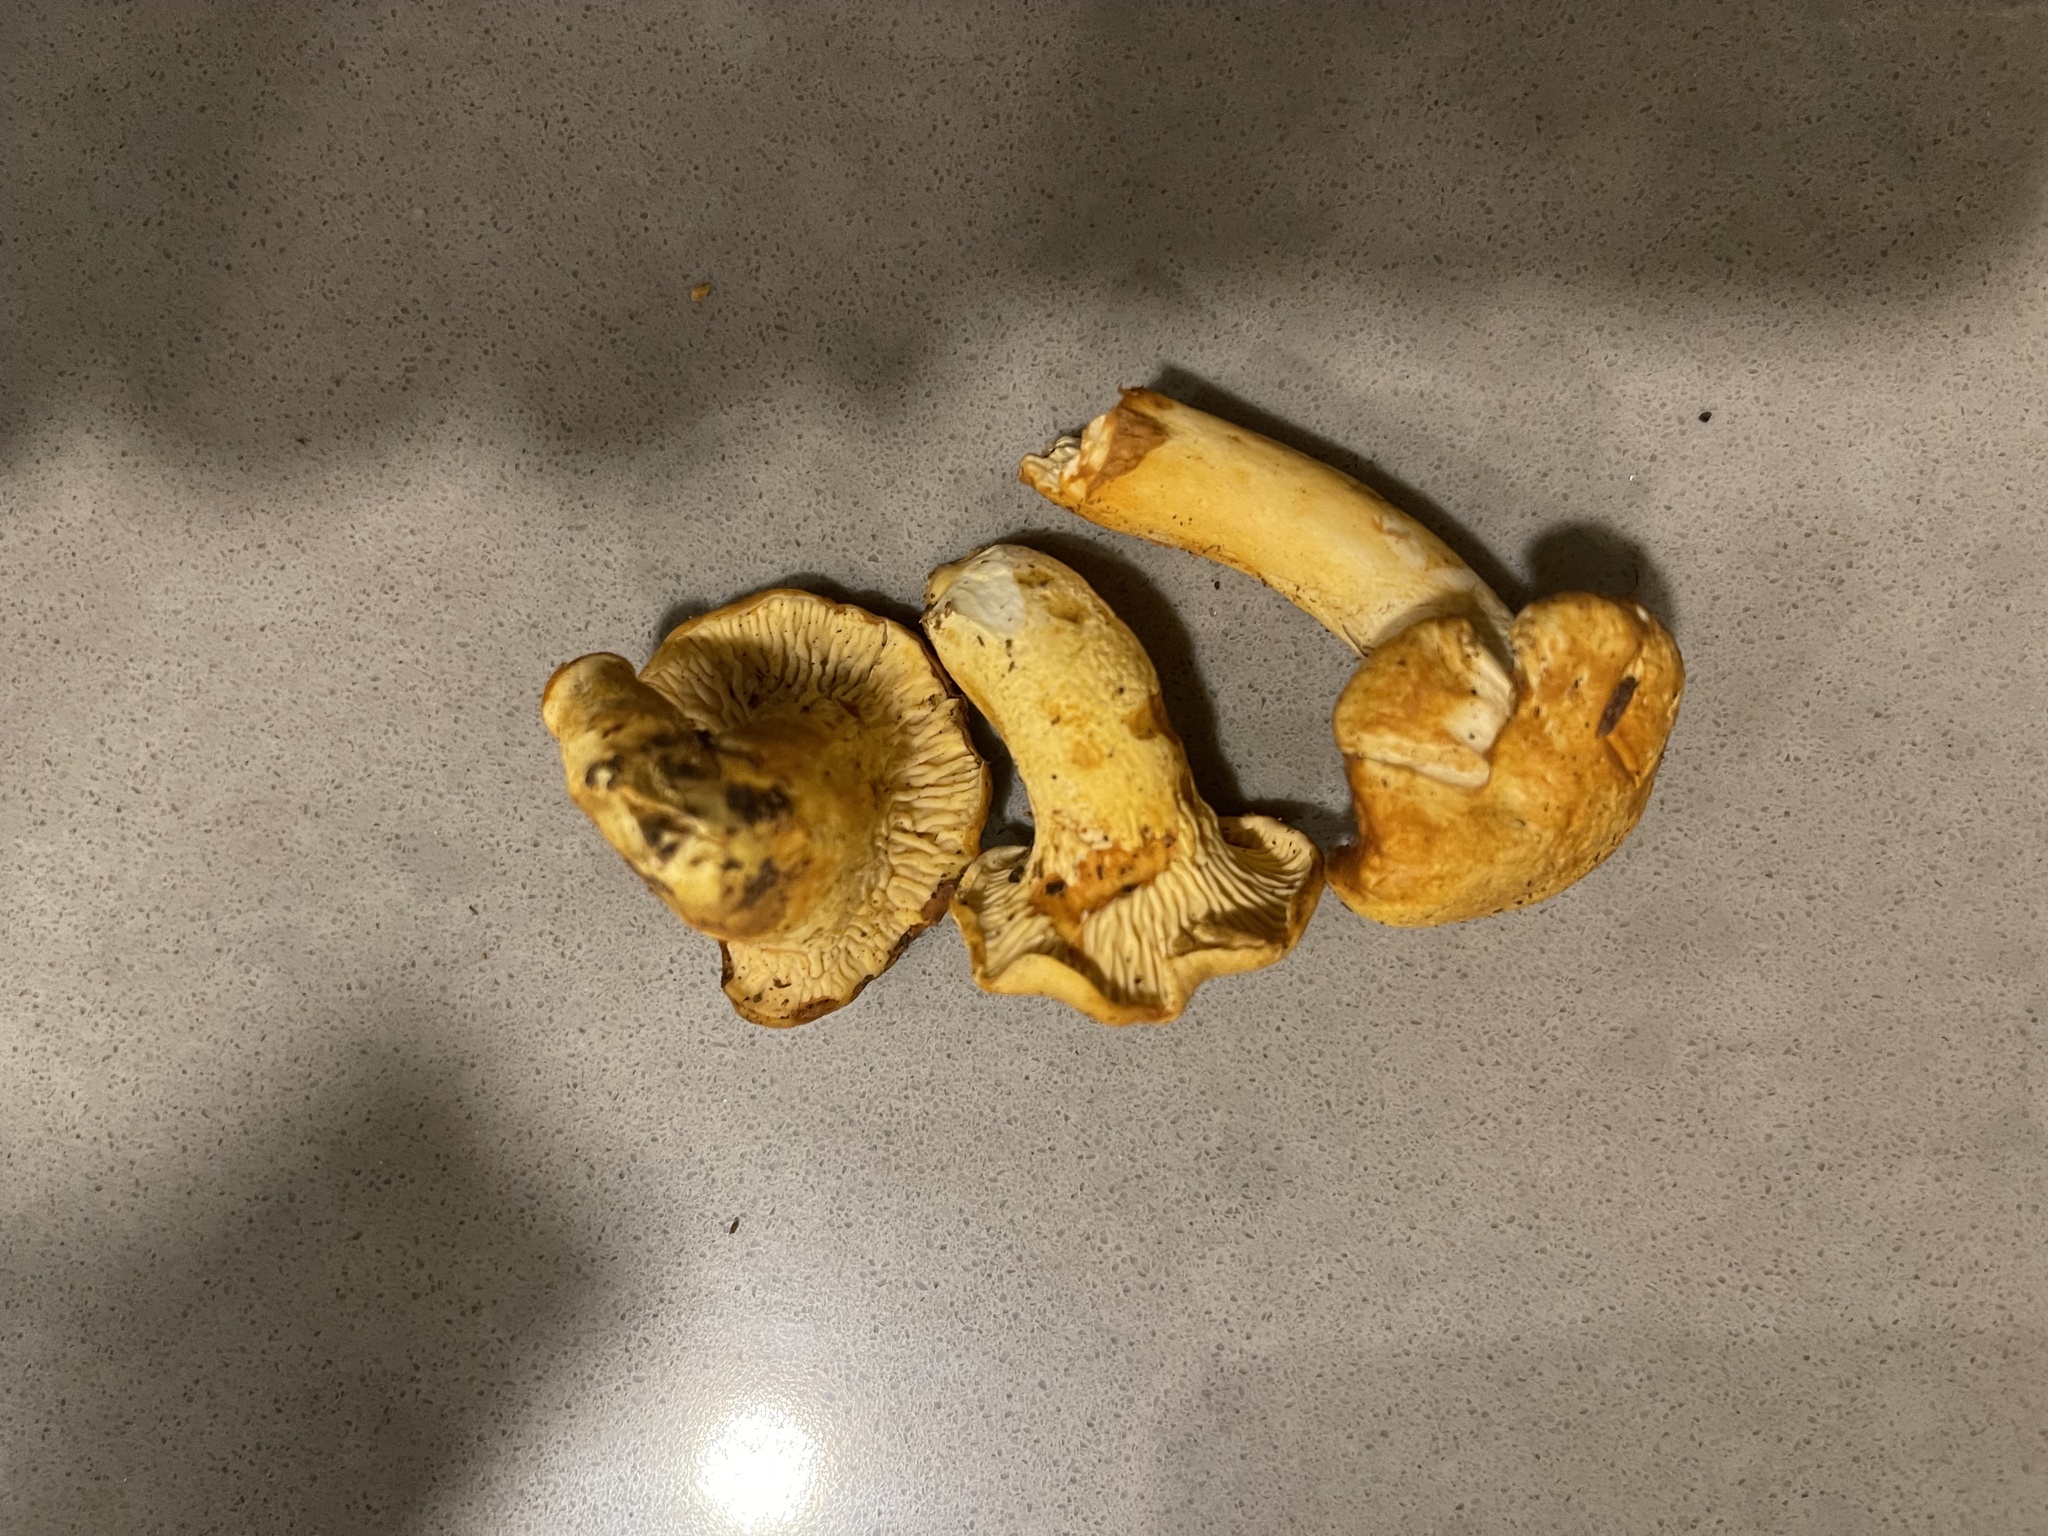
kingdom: Fungi
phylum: Basidiomycota
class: Agaricomycetes
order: Cantharellales
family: Hydnaceae
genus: Cantharellus
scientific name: Cantharellus formosus
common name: Pacific golden chanterelle
